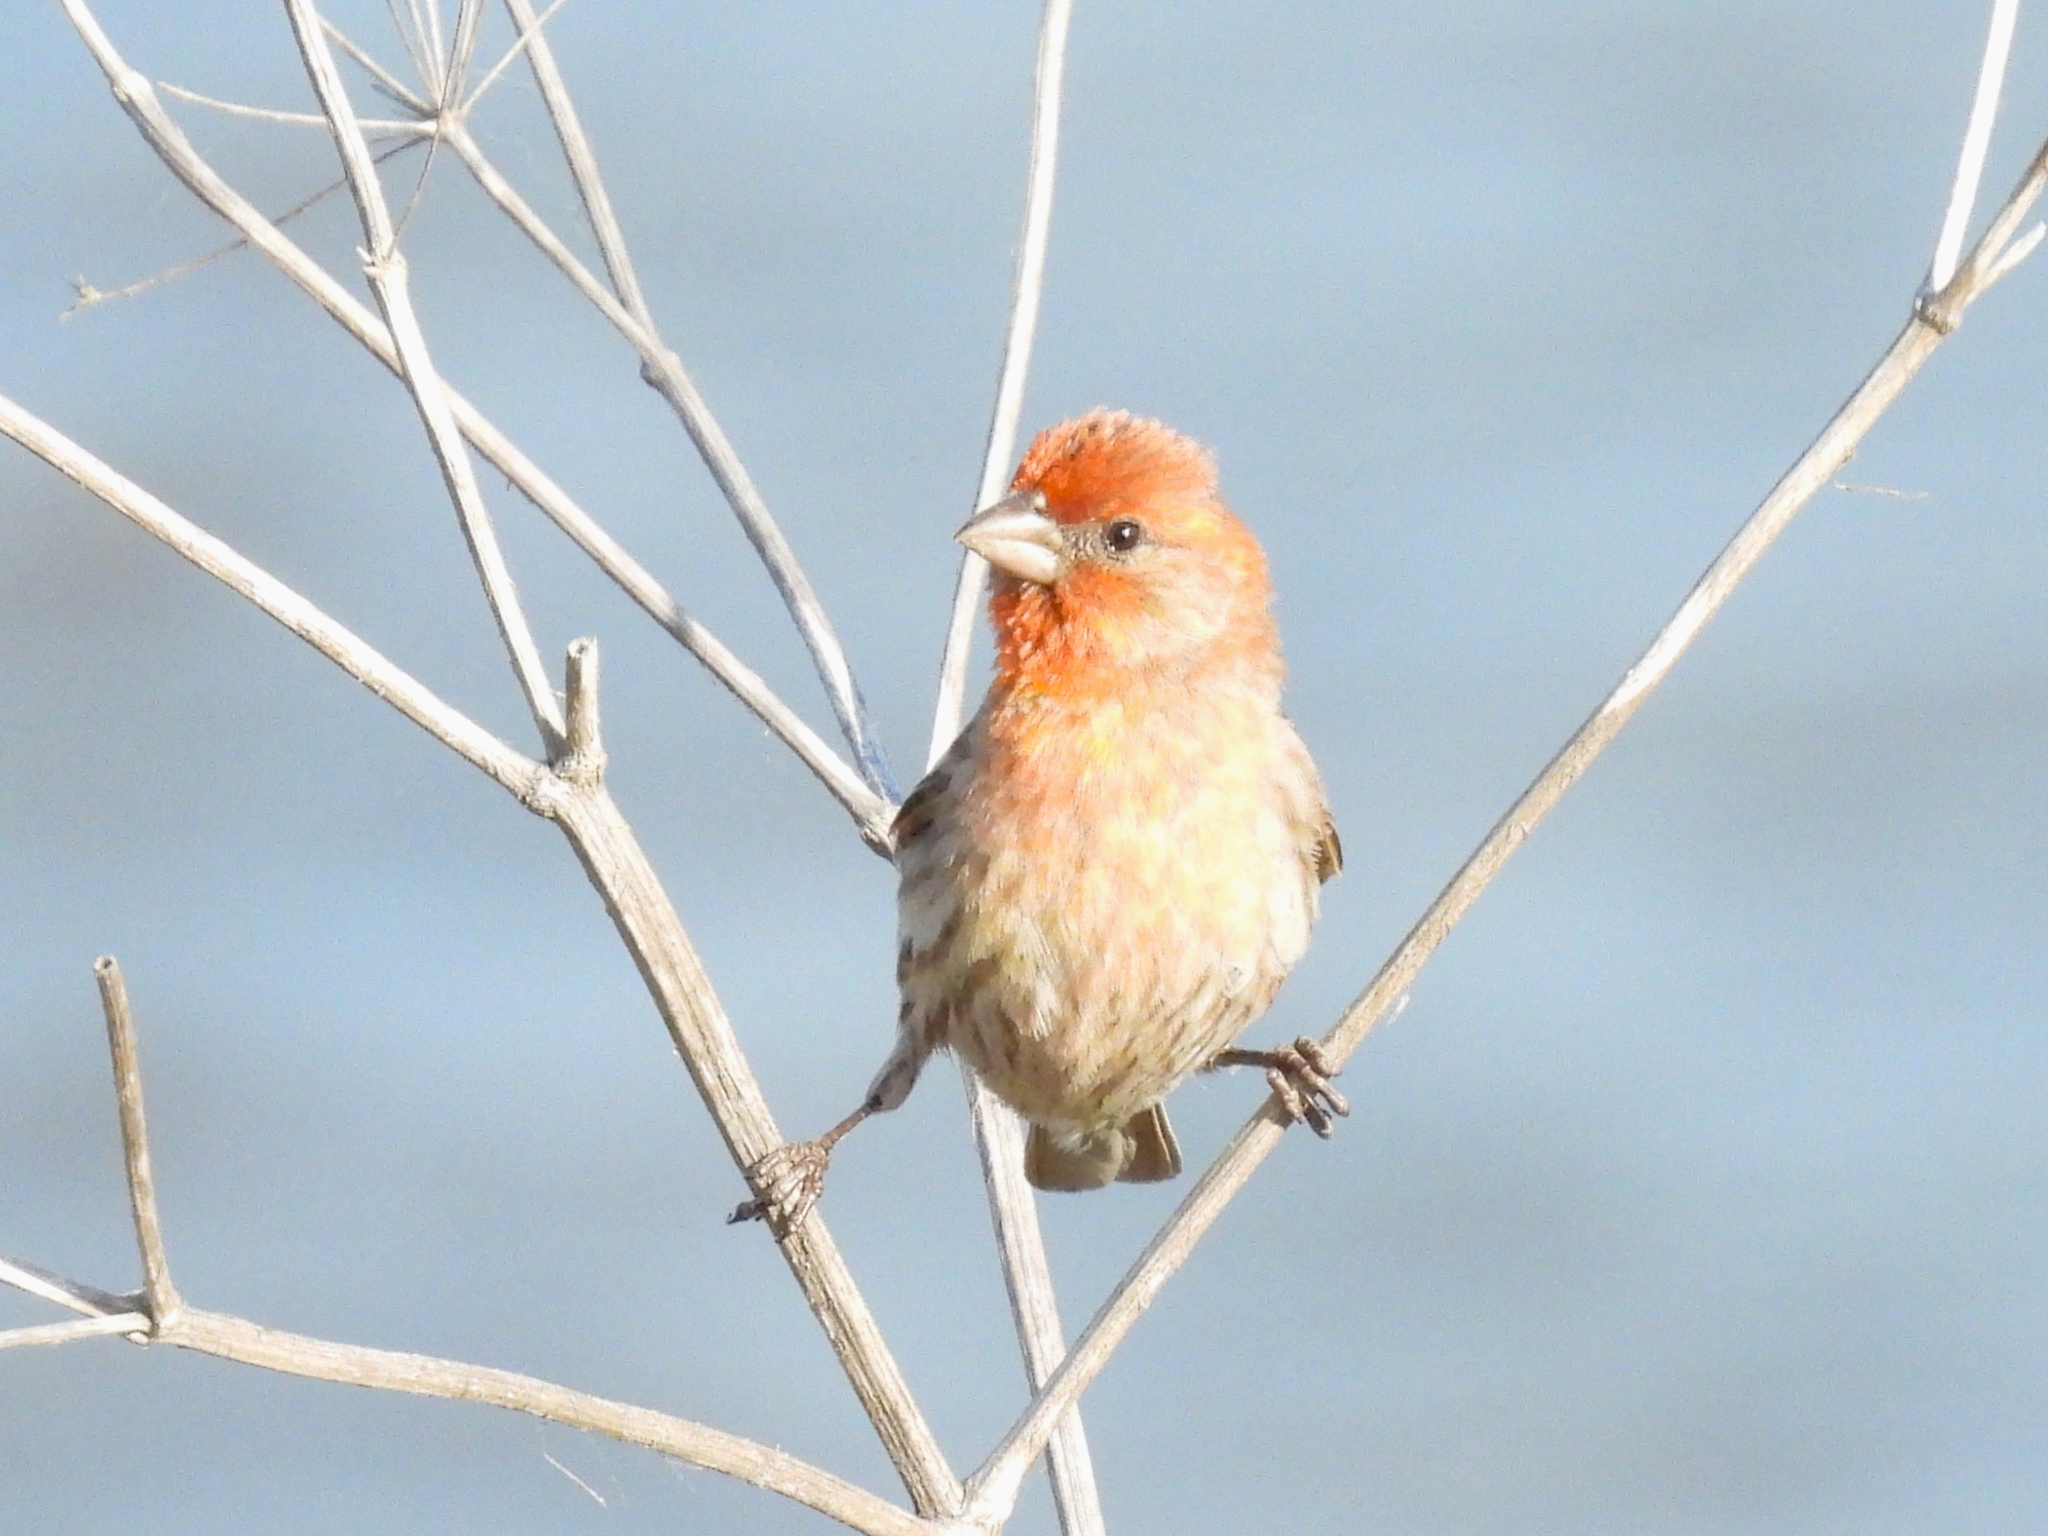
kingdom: Animalia
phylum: Chordata
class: Aves
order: Passeriformes
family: Fringillidae
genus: Haemorhous
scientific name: Haemorhous mexicanus
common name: House finch
